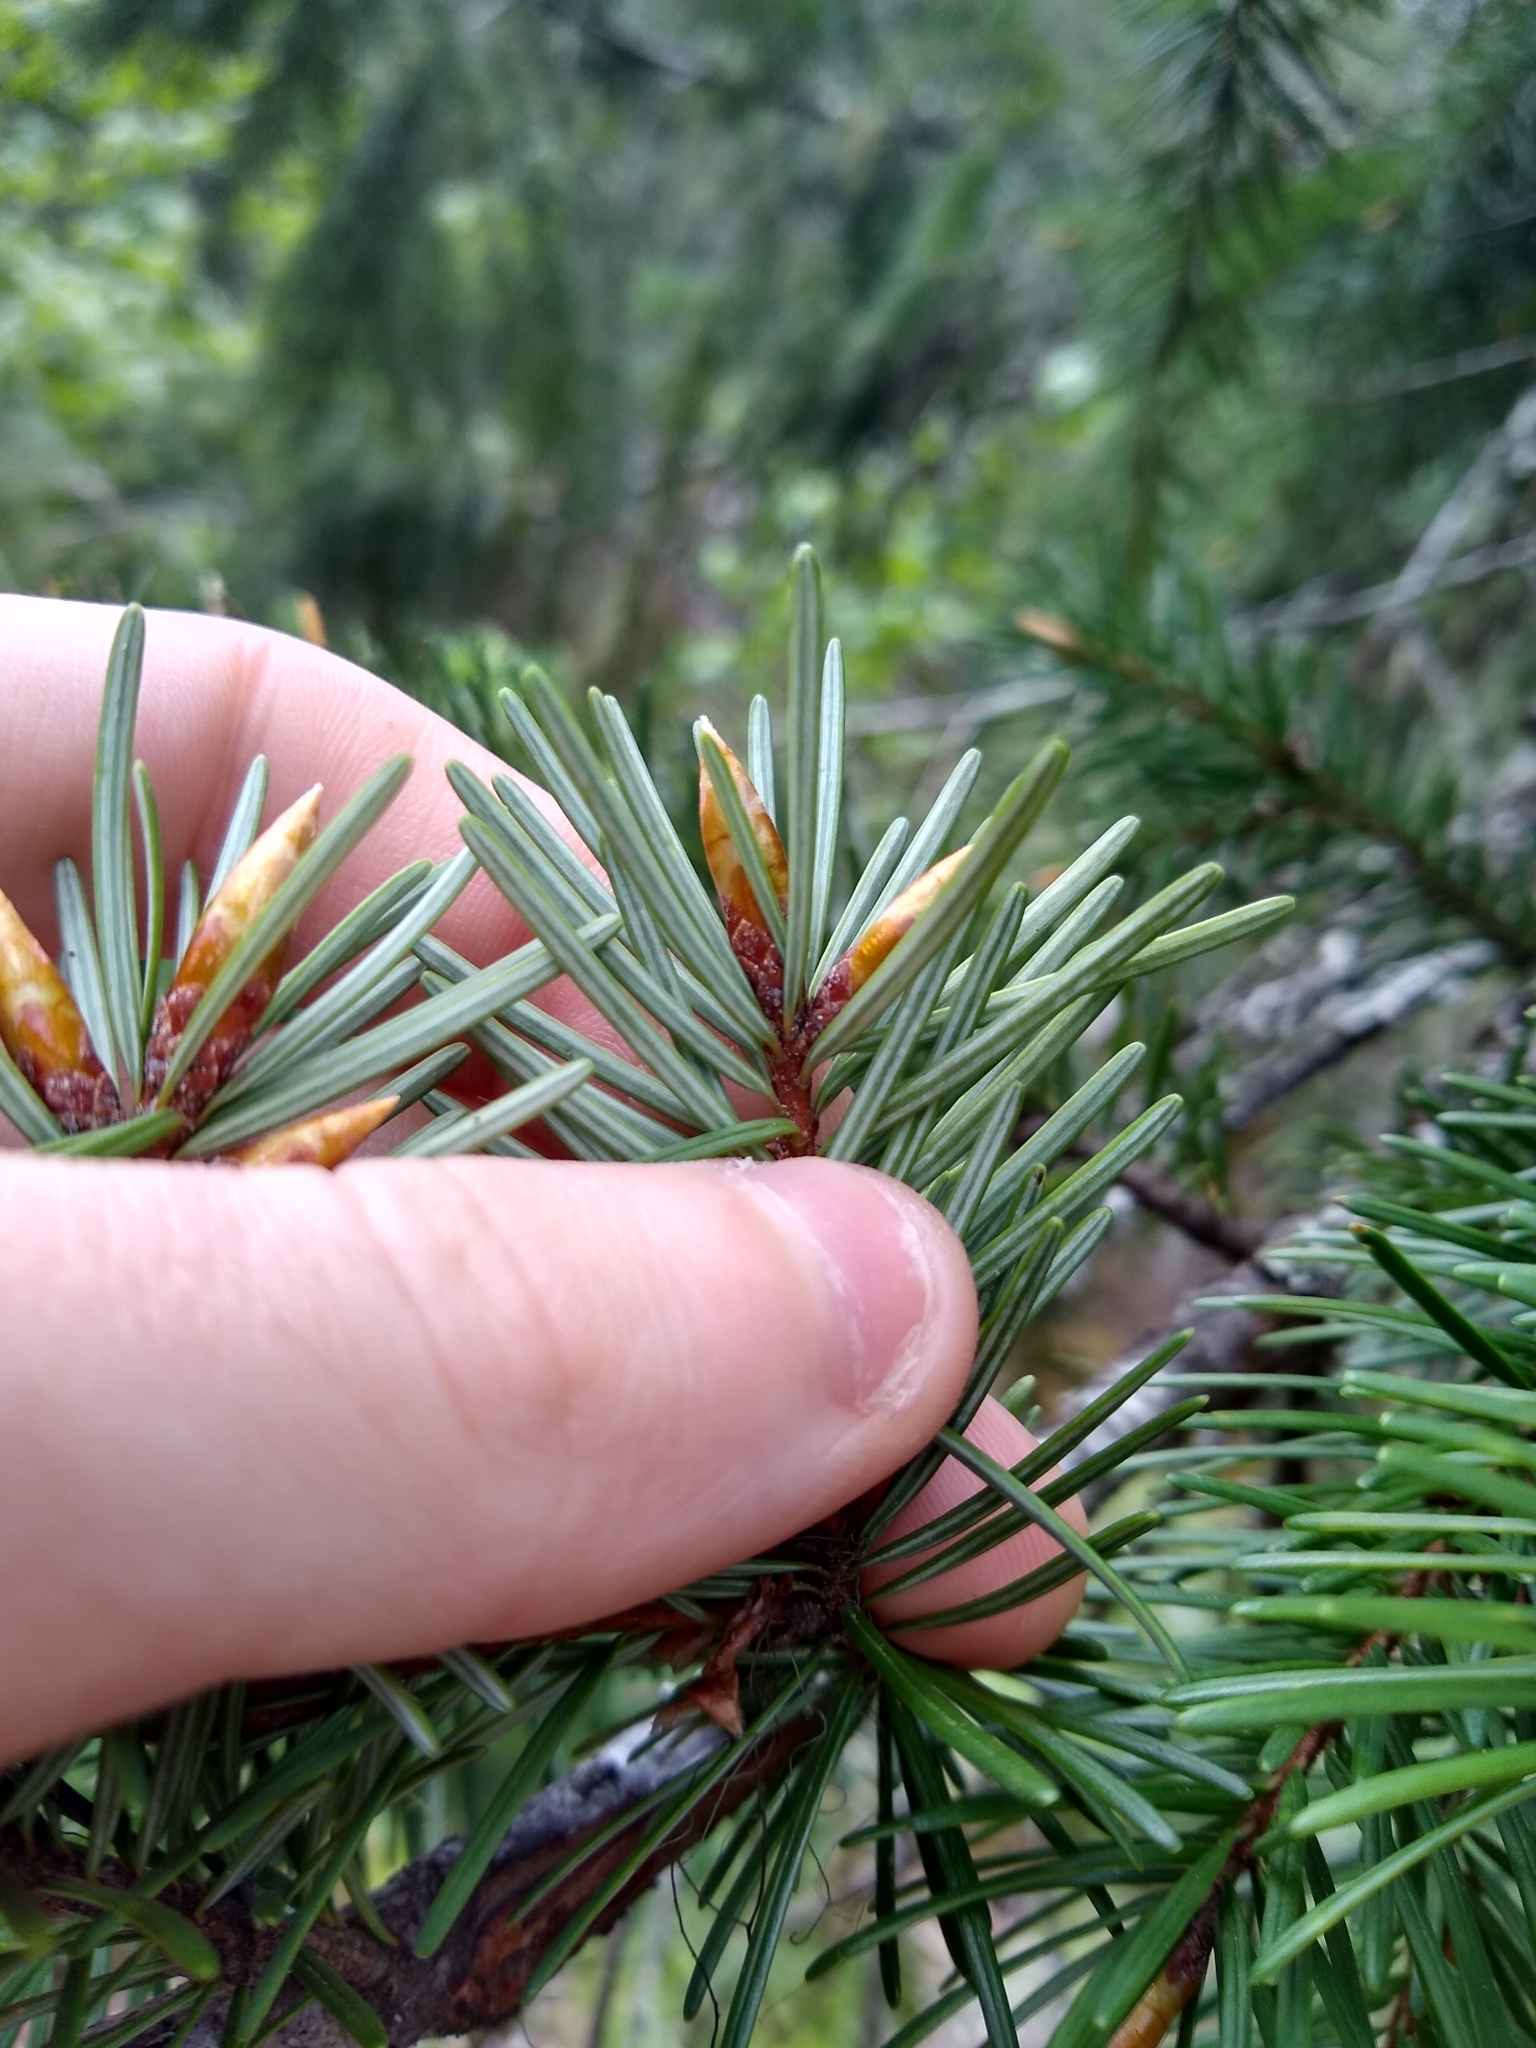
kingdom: Plantae
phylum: Tracheophyta
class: Pinopsida
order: Pinales
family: Pinaceae
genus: Pseudotsuga
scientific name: Pseudotsuga menziesii
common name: Douglas fir
